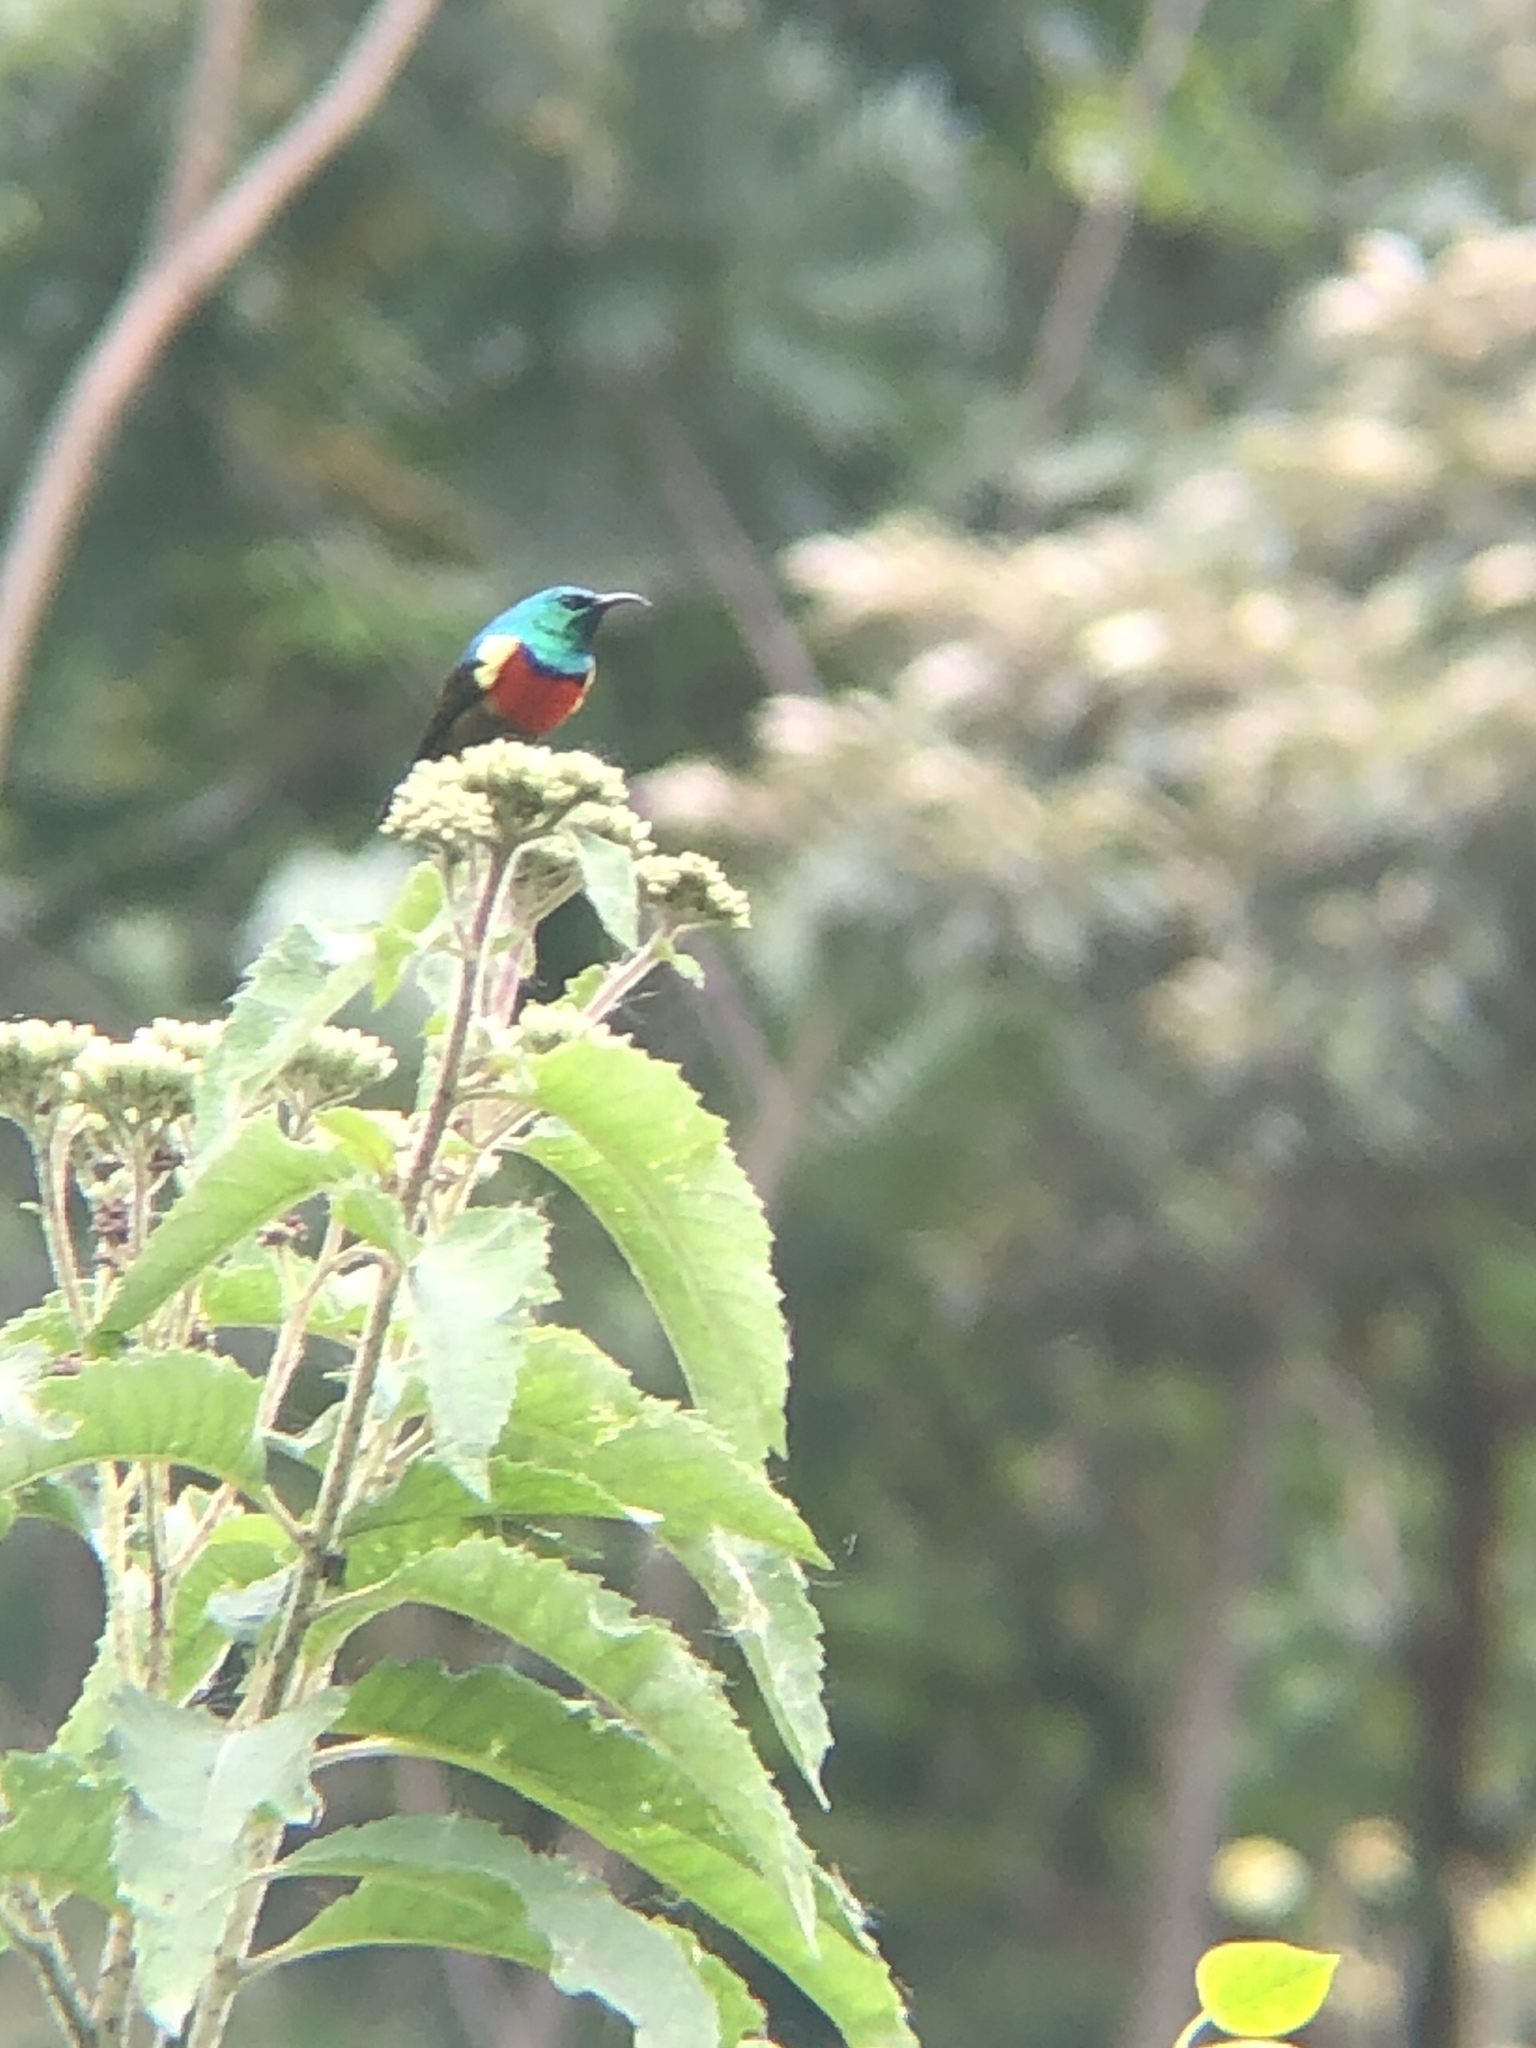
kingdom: Animalia
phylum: Chordata
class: Aves
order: Passeriformes
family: Nectariniidae
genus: Cinnyris
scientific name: Cinnyris reichenowi
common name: Northern double-collared sunbird
